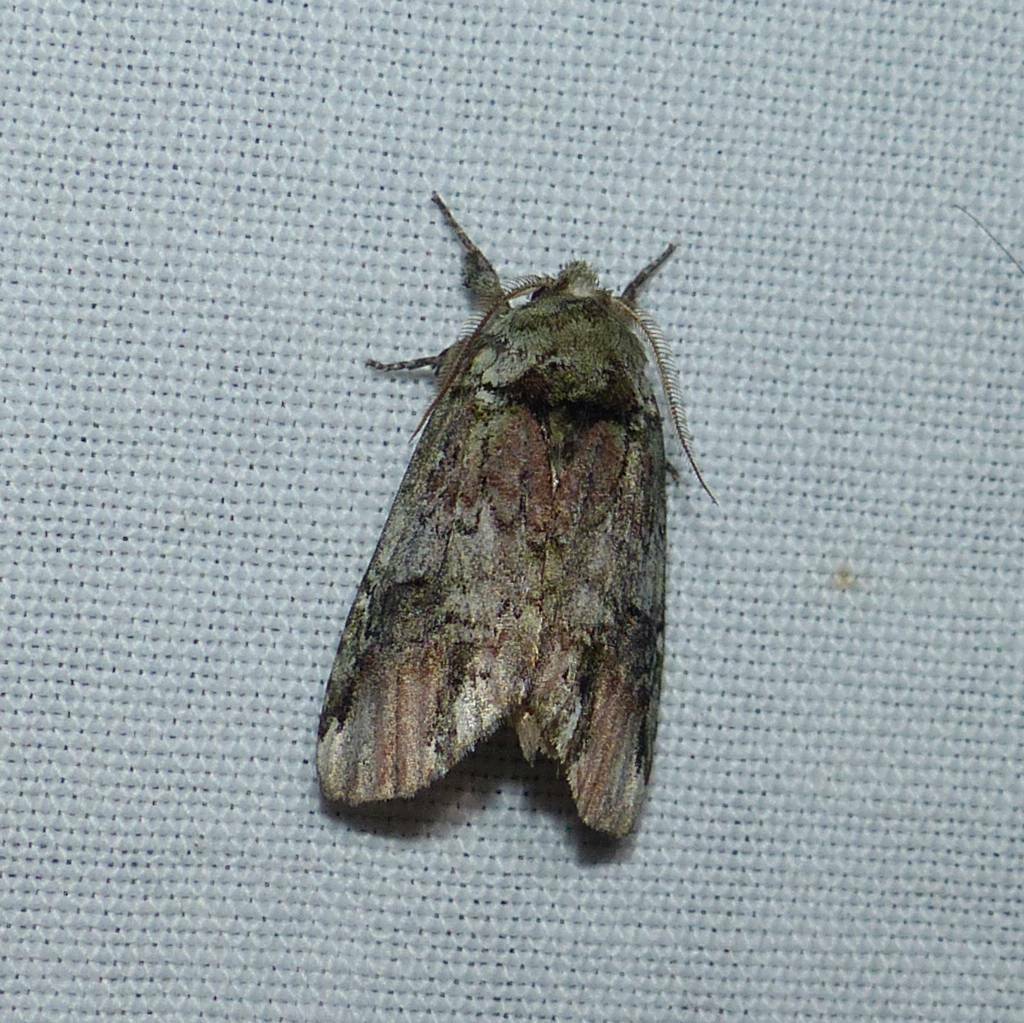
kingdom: Animalia
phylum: Arthropoda
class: Insecta
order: Lepidoptera
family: Notodontidae
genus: Schizura
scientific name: Schizura
